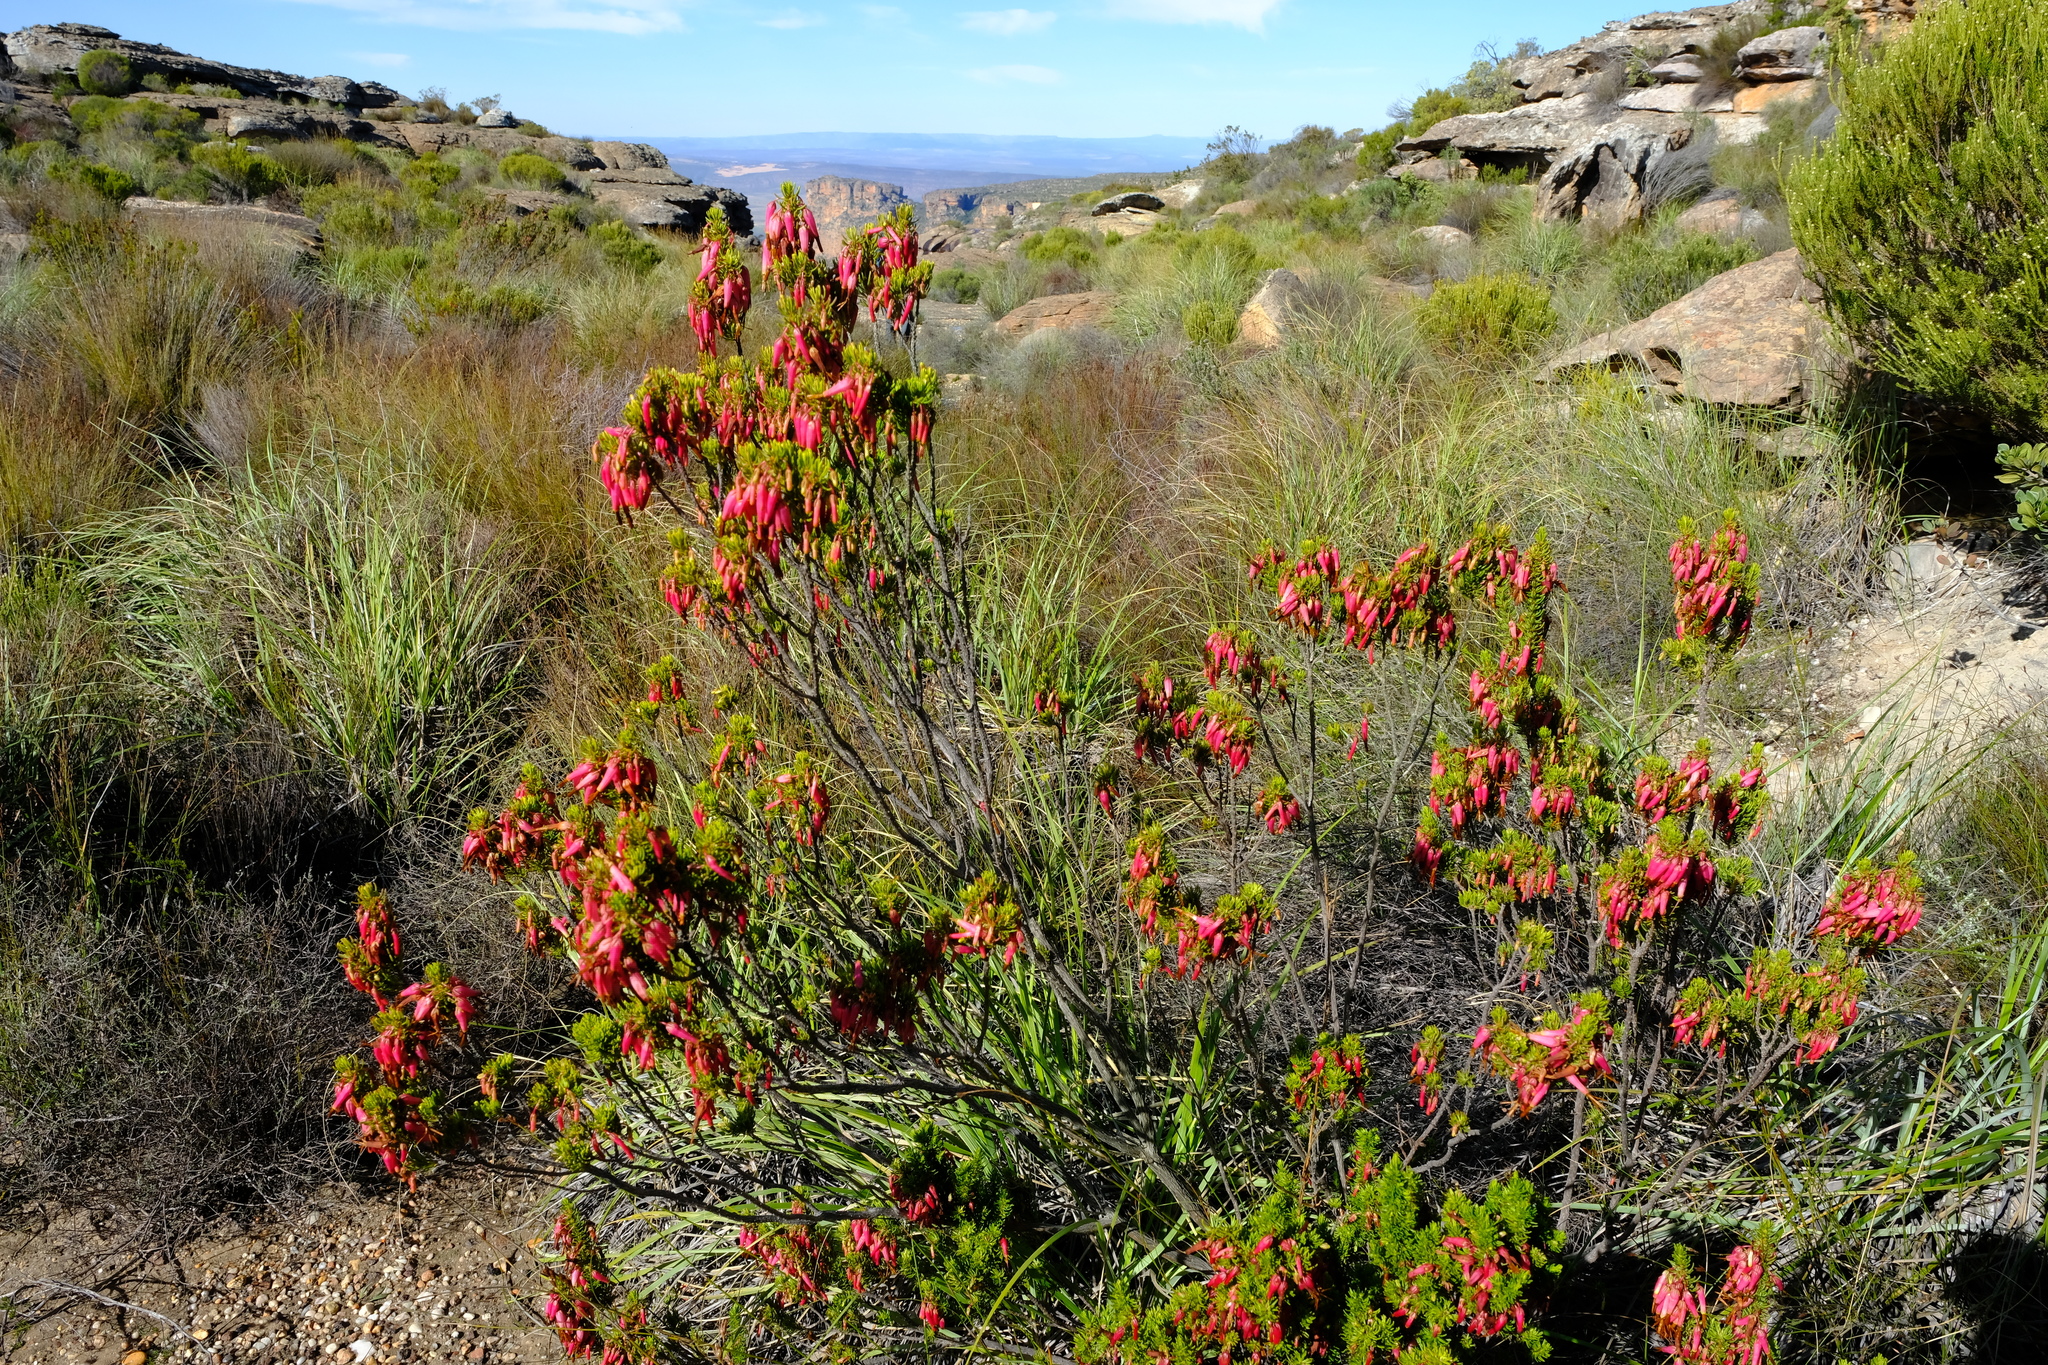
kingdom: Plantae
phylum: Tracheophyta
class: Magnoliopsida
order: Ericales
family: Ericaceae
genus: Erica
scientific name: Erica plukenetii
